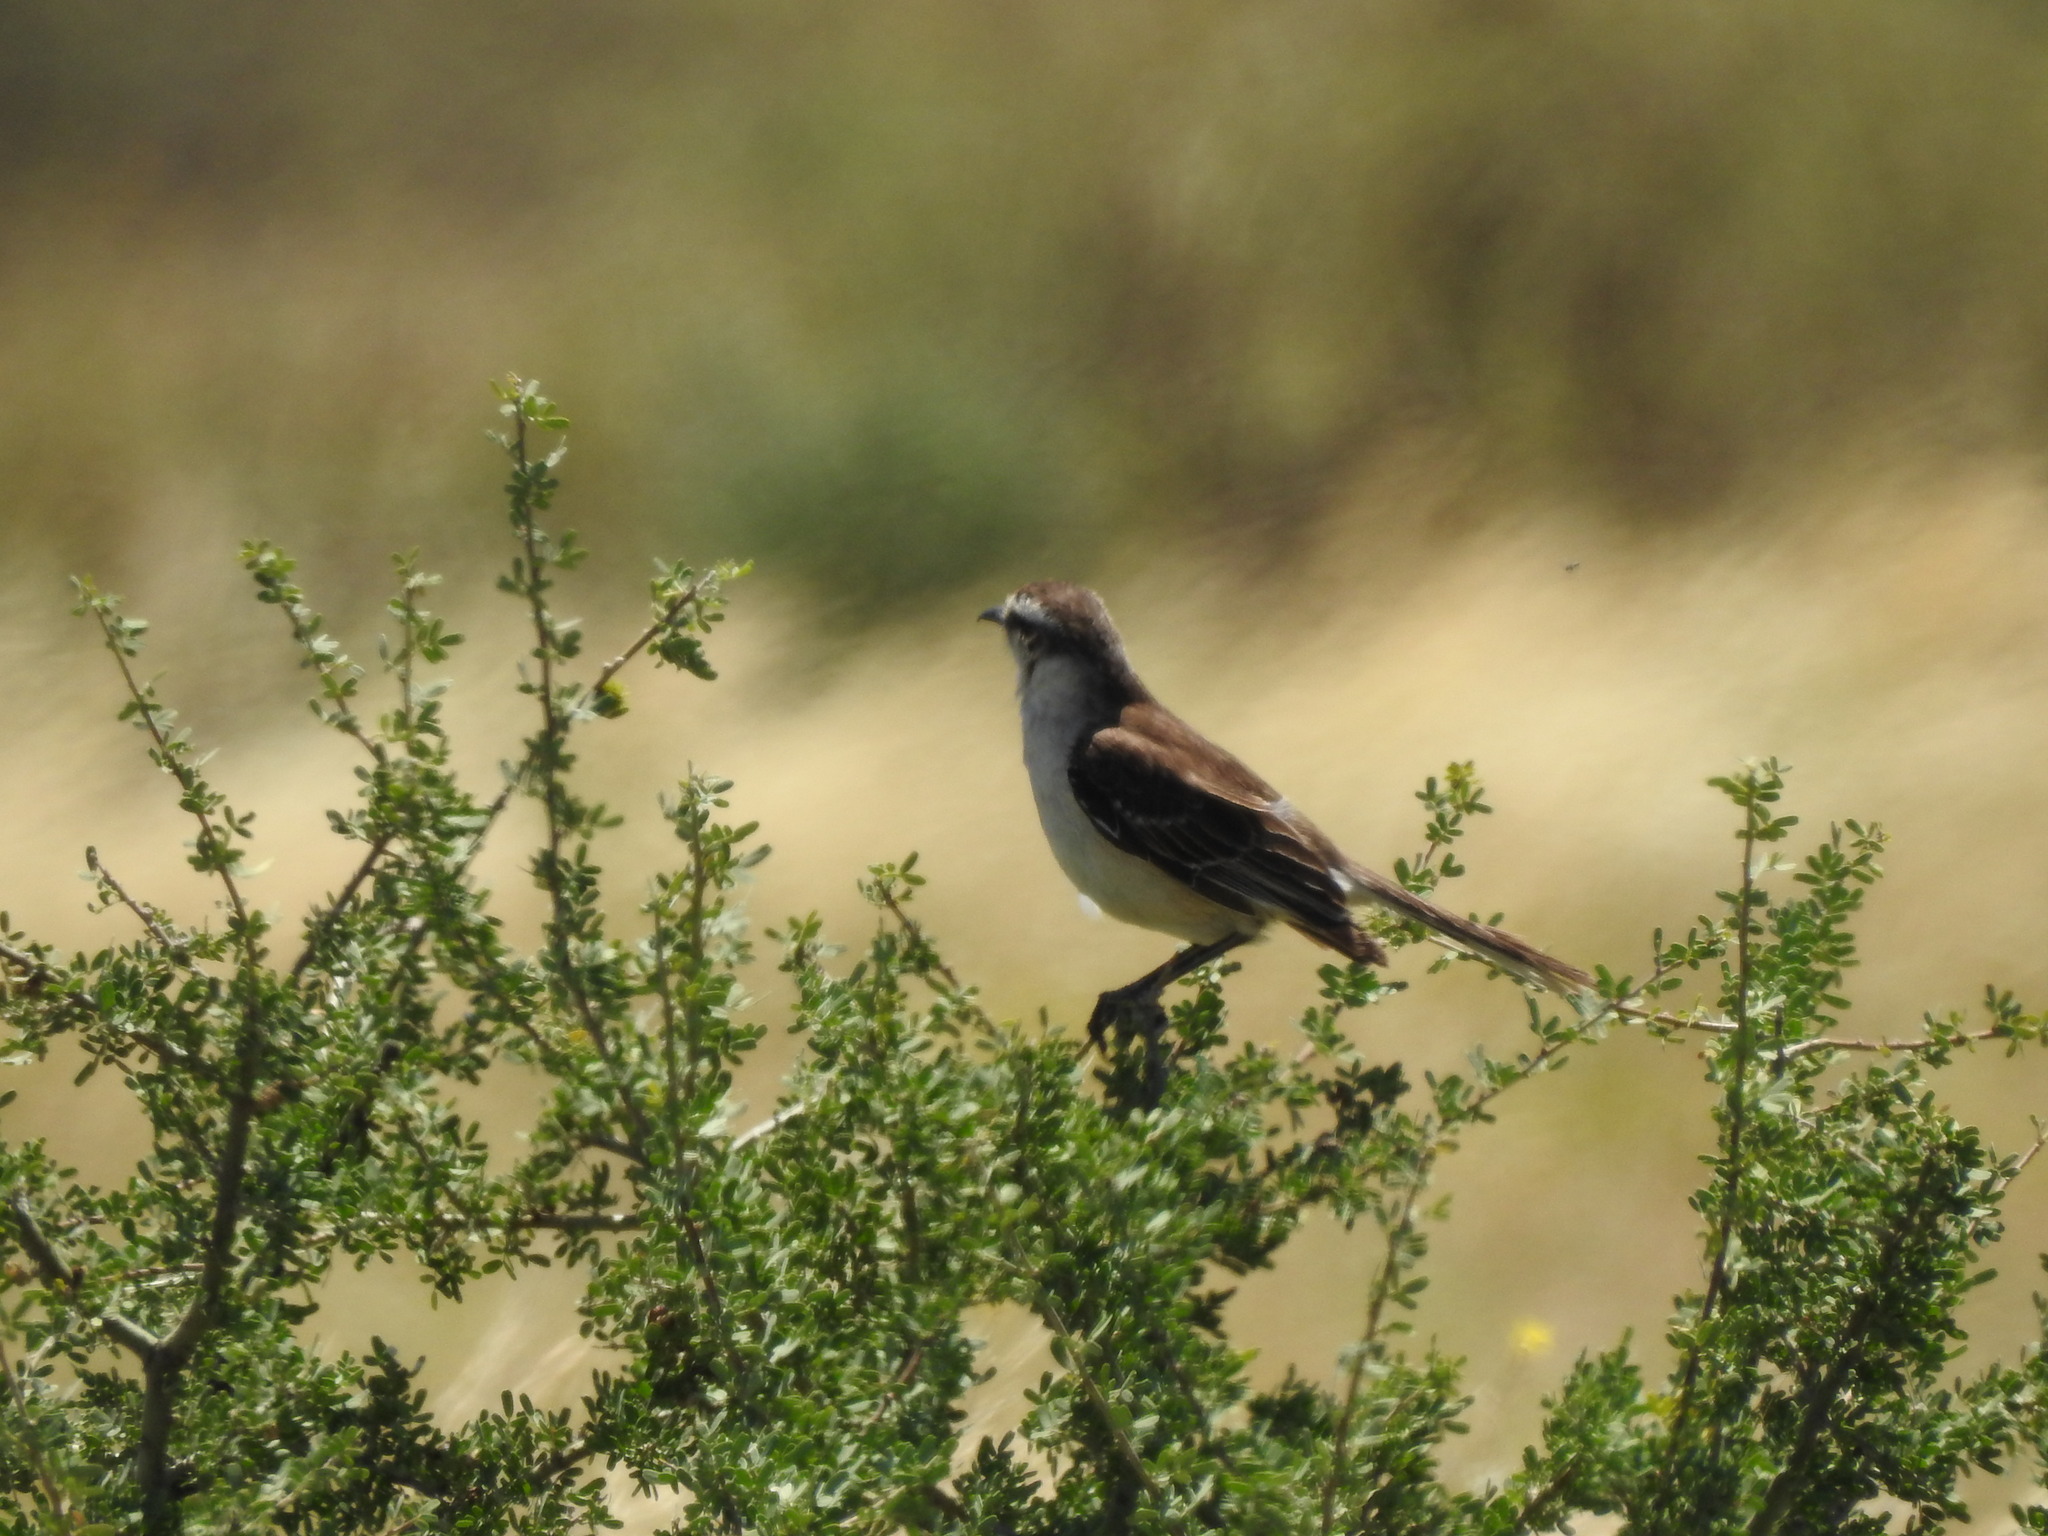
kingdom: Animalia
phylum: Chordata
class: Aves
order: Passeriformes
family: Mimidae
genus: Mimus
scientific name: Mimus saturninus
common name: Chalk-browed mockingbird
